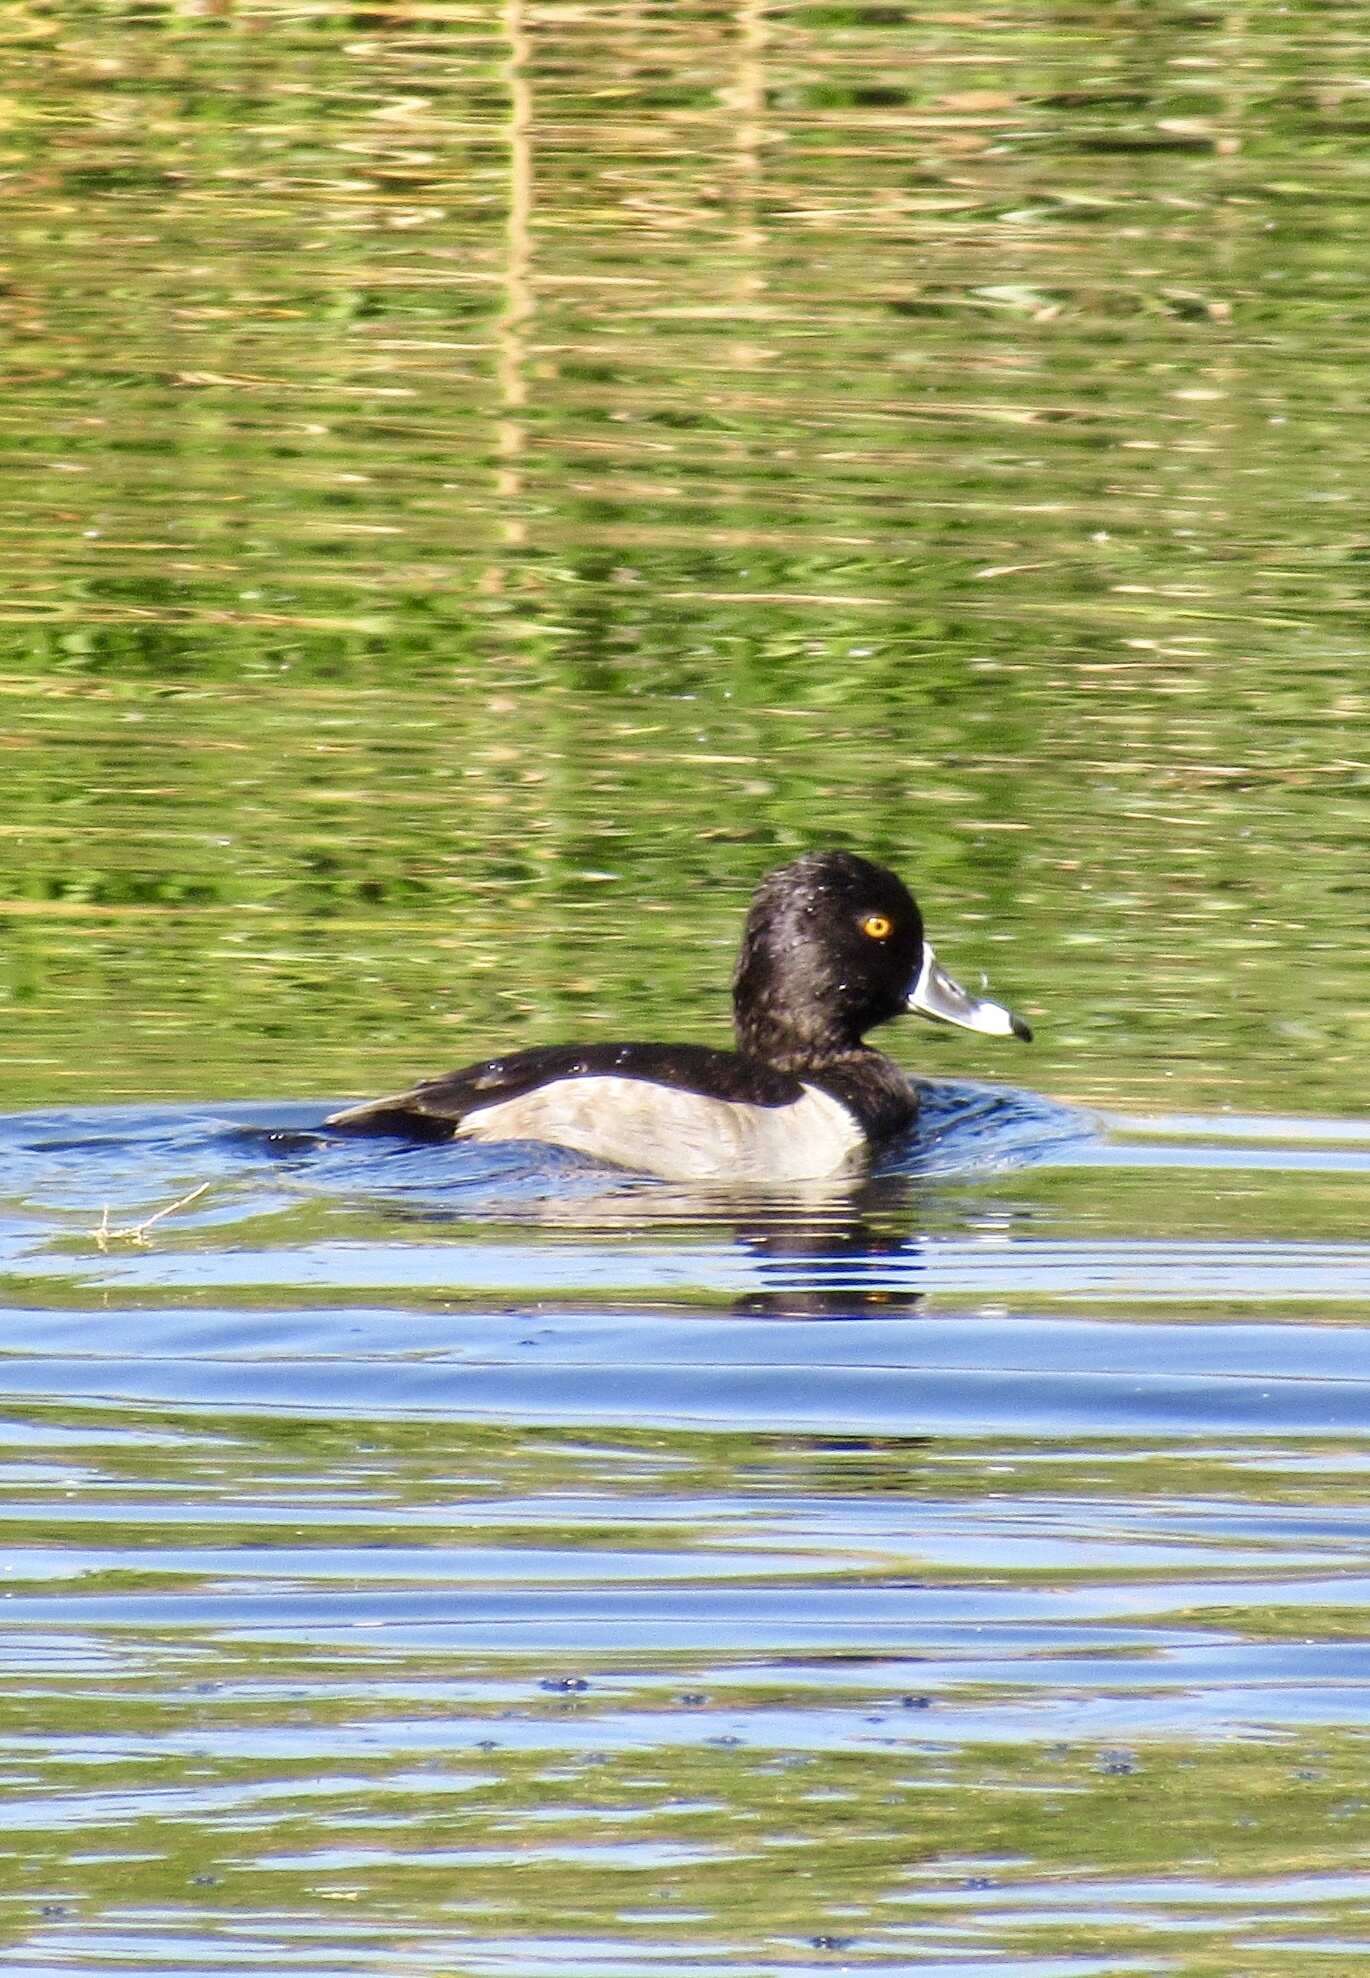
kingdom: Animalia
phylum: Chordata
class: Aves
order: Anseriformes
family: Anatidae
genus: Aythya
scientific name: Aythya collaris
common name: Ring-necked duck
